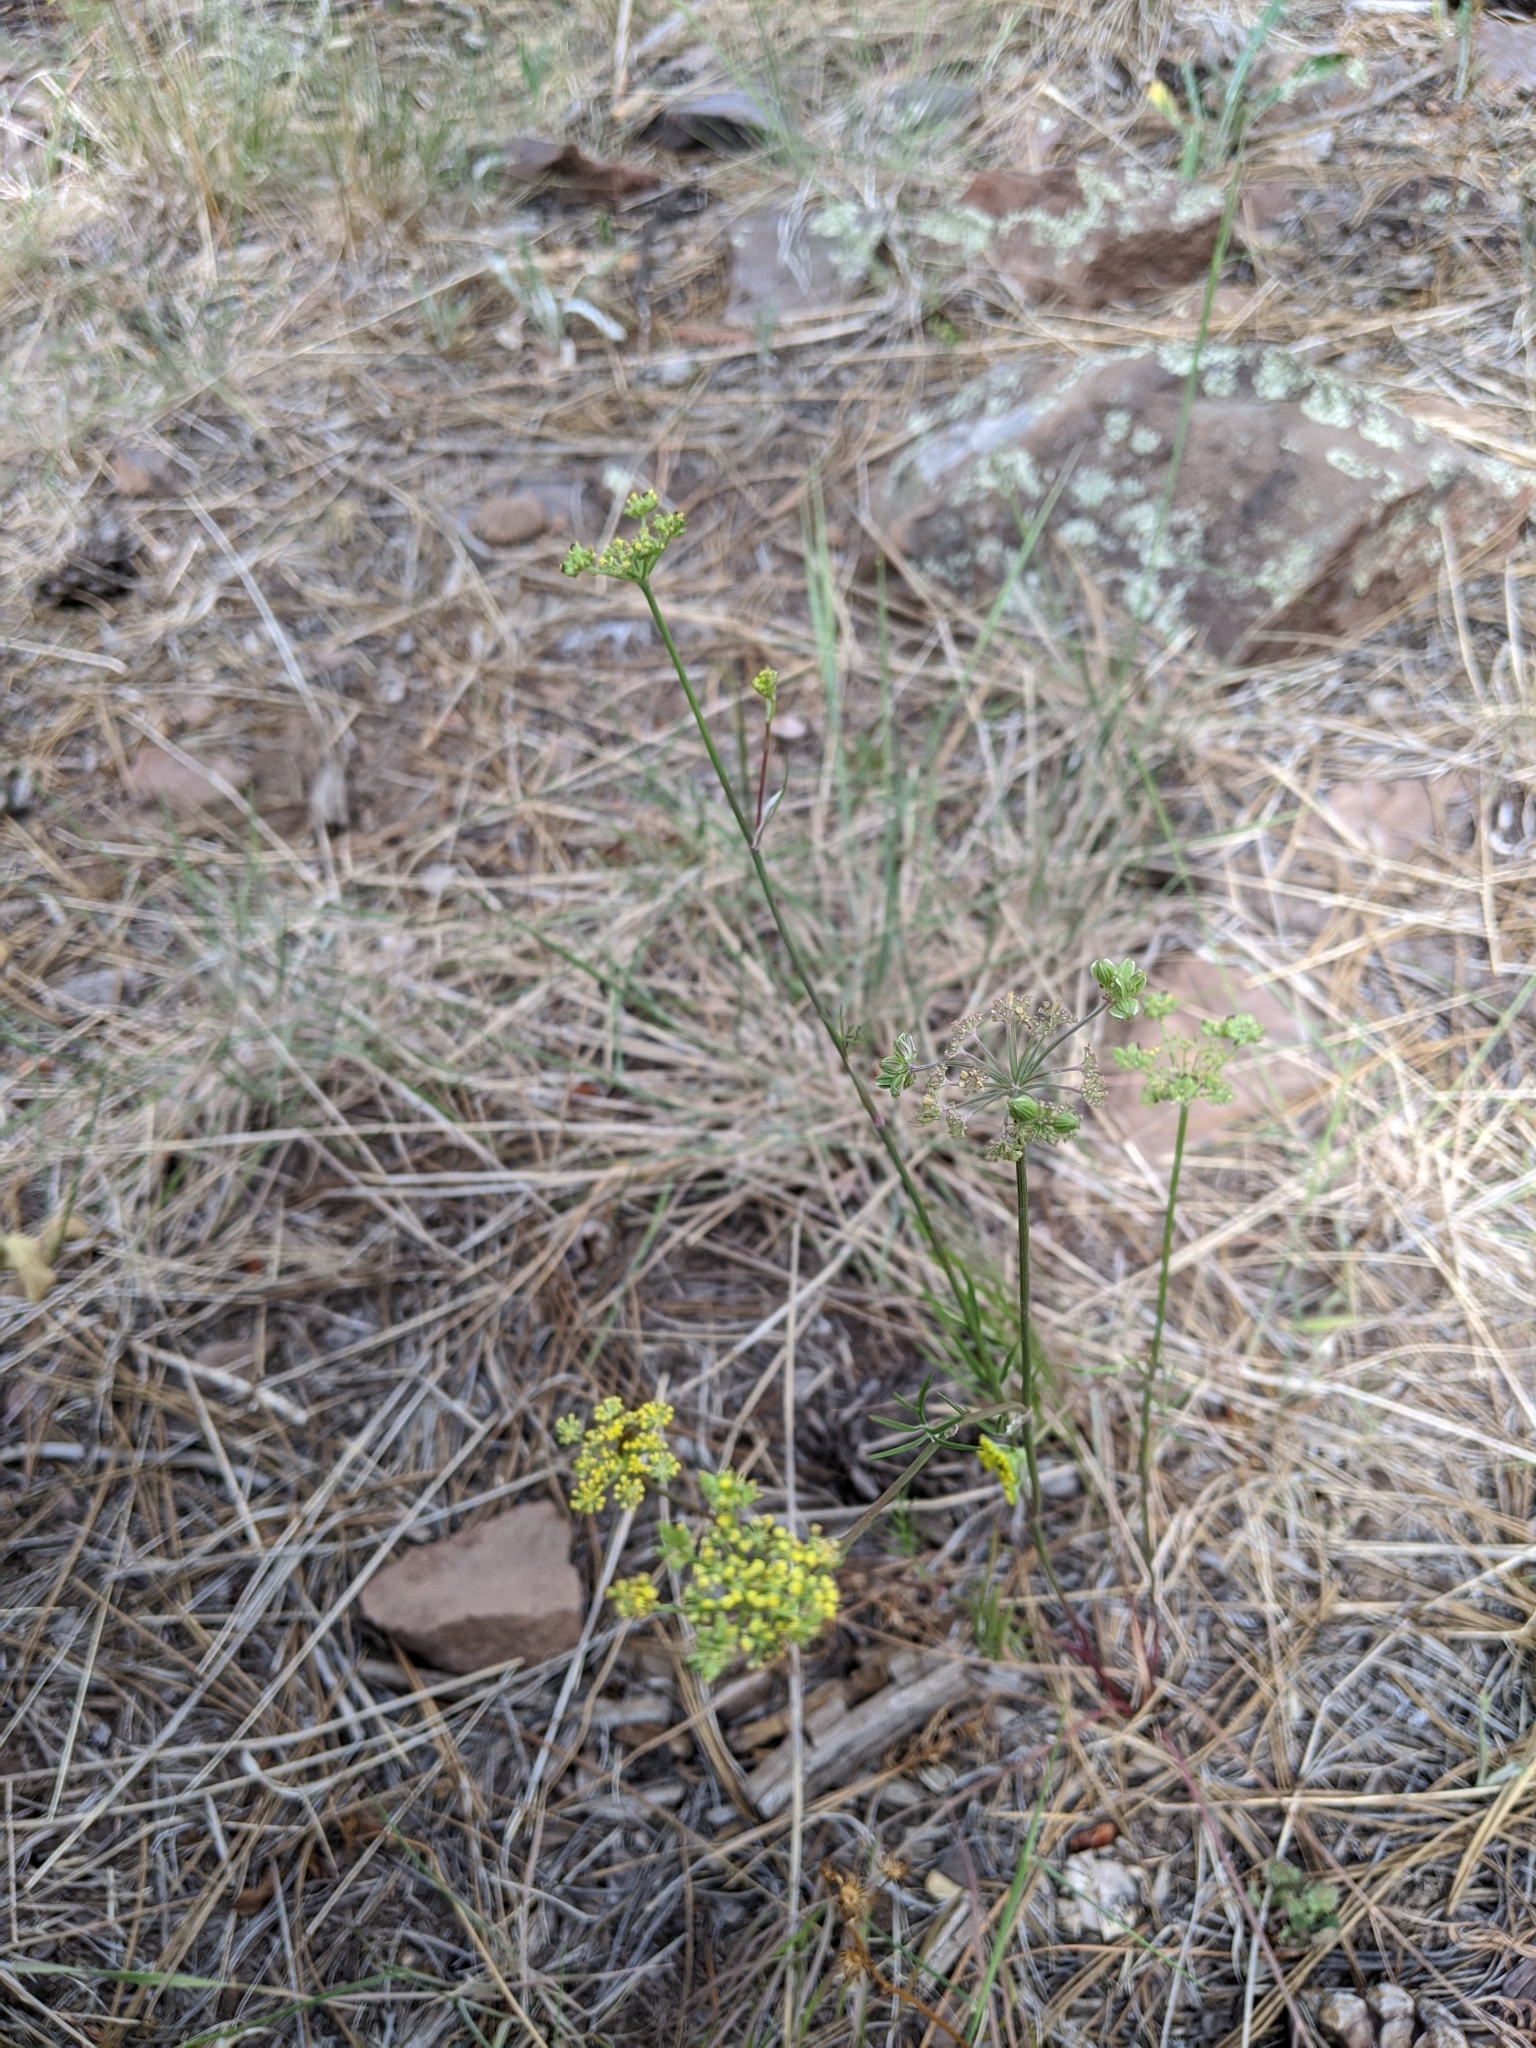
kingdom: Plantae
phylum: Tracheophyta
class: Magnoliopsida
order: Apiales
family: Apiaceae
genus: Cymopterus
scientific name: Cymopterus lemmonii
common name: Lemmon's spring-parsley
